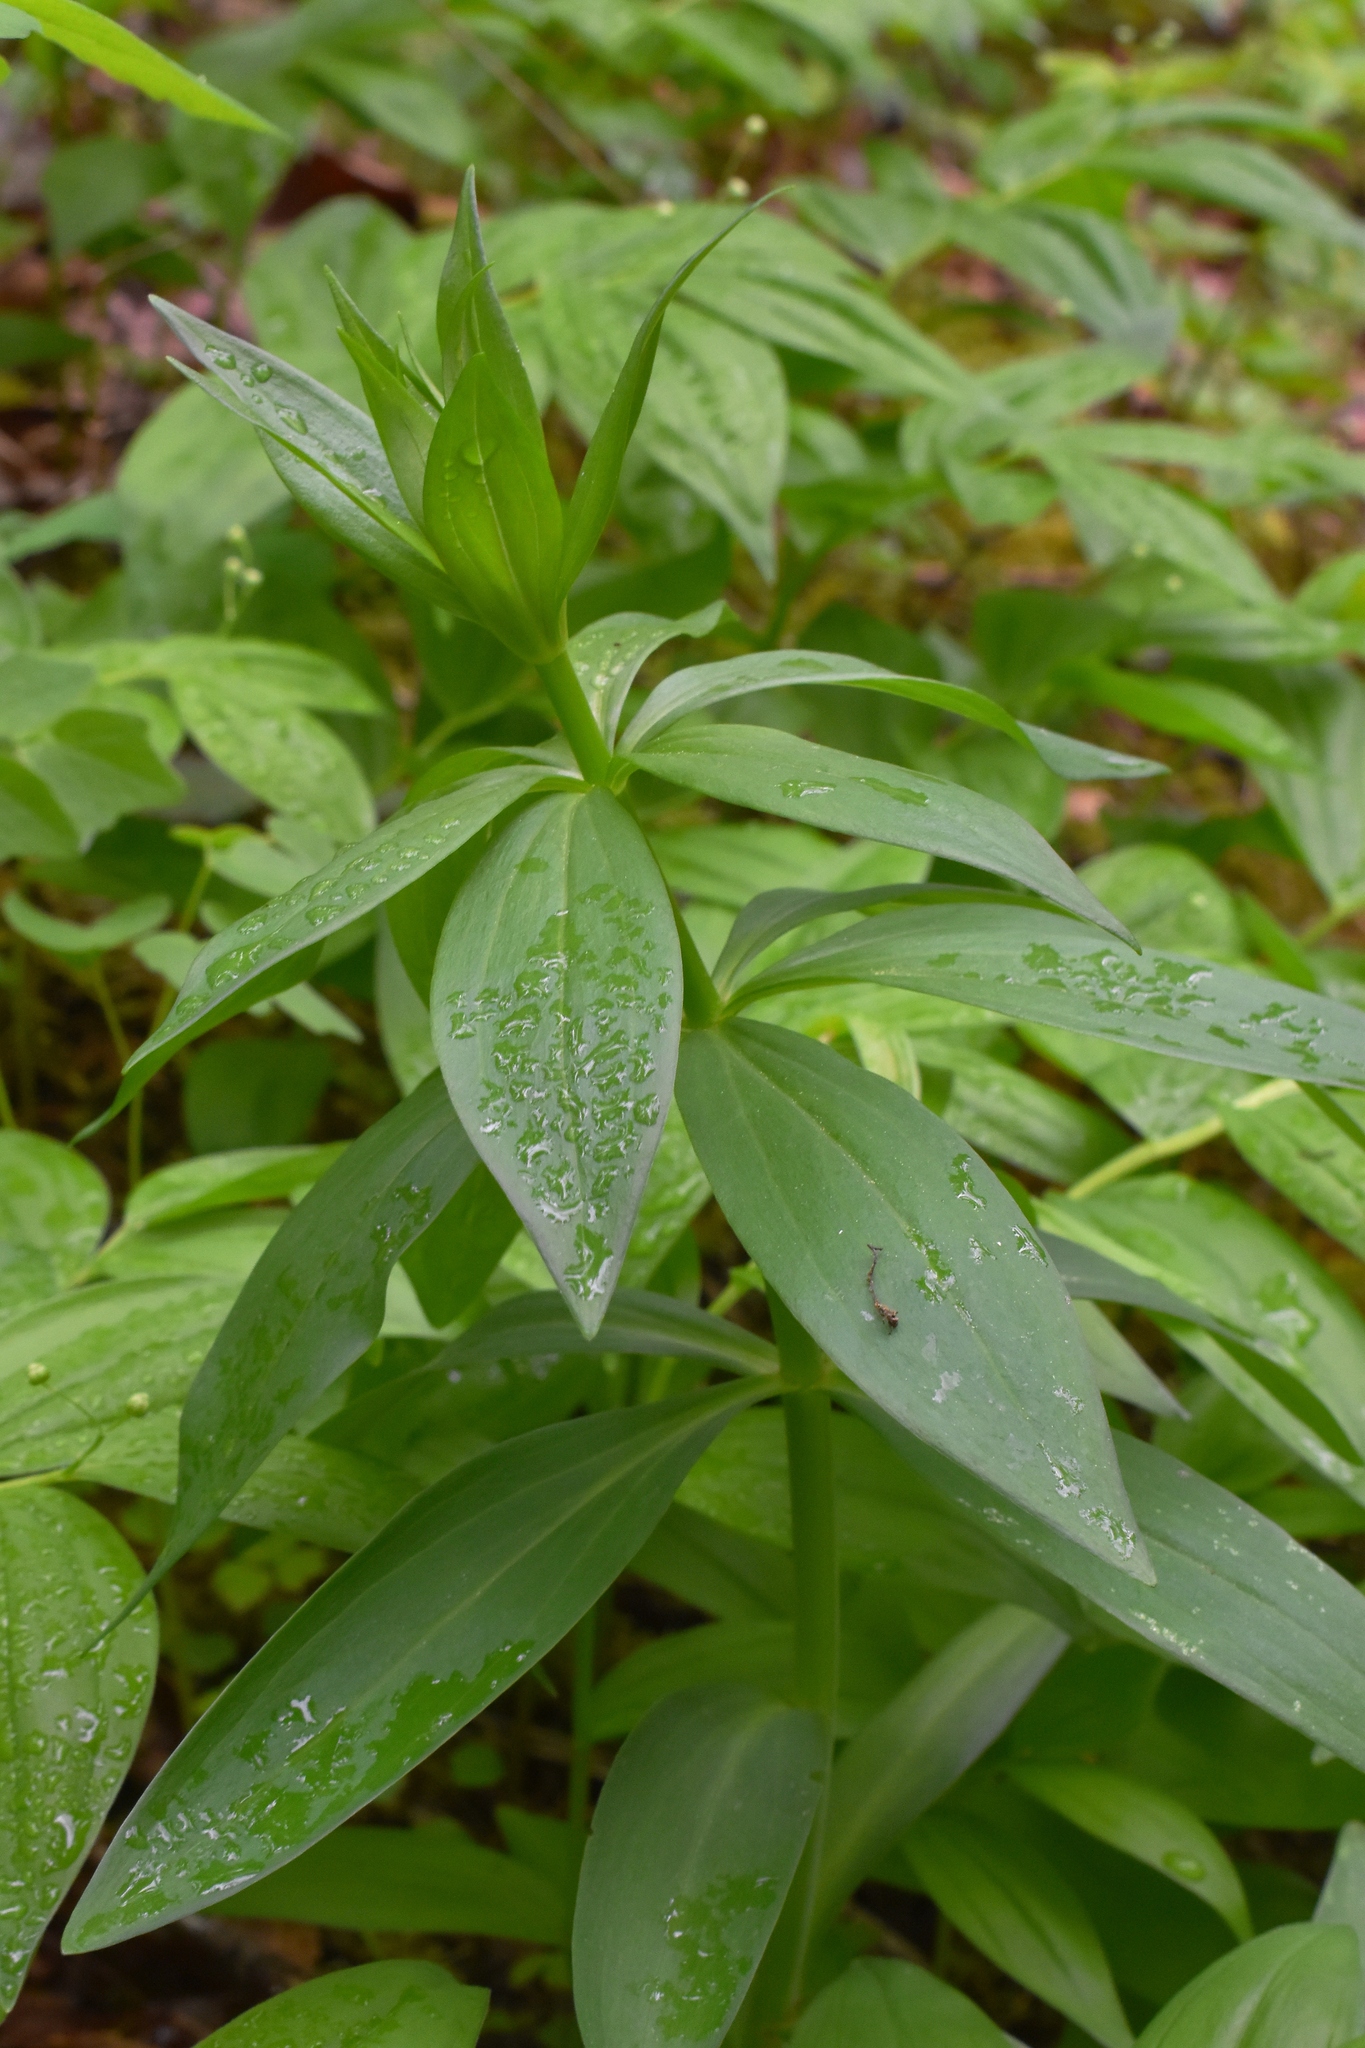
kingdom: Plantae
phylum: Tracheophyta
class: Liliopsida
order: Liliales
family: Liliaceae
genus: Lilium
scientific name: Lilium columbianum
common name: Columbia lily
